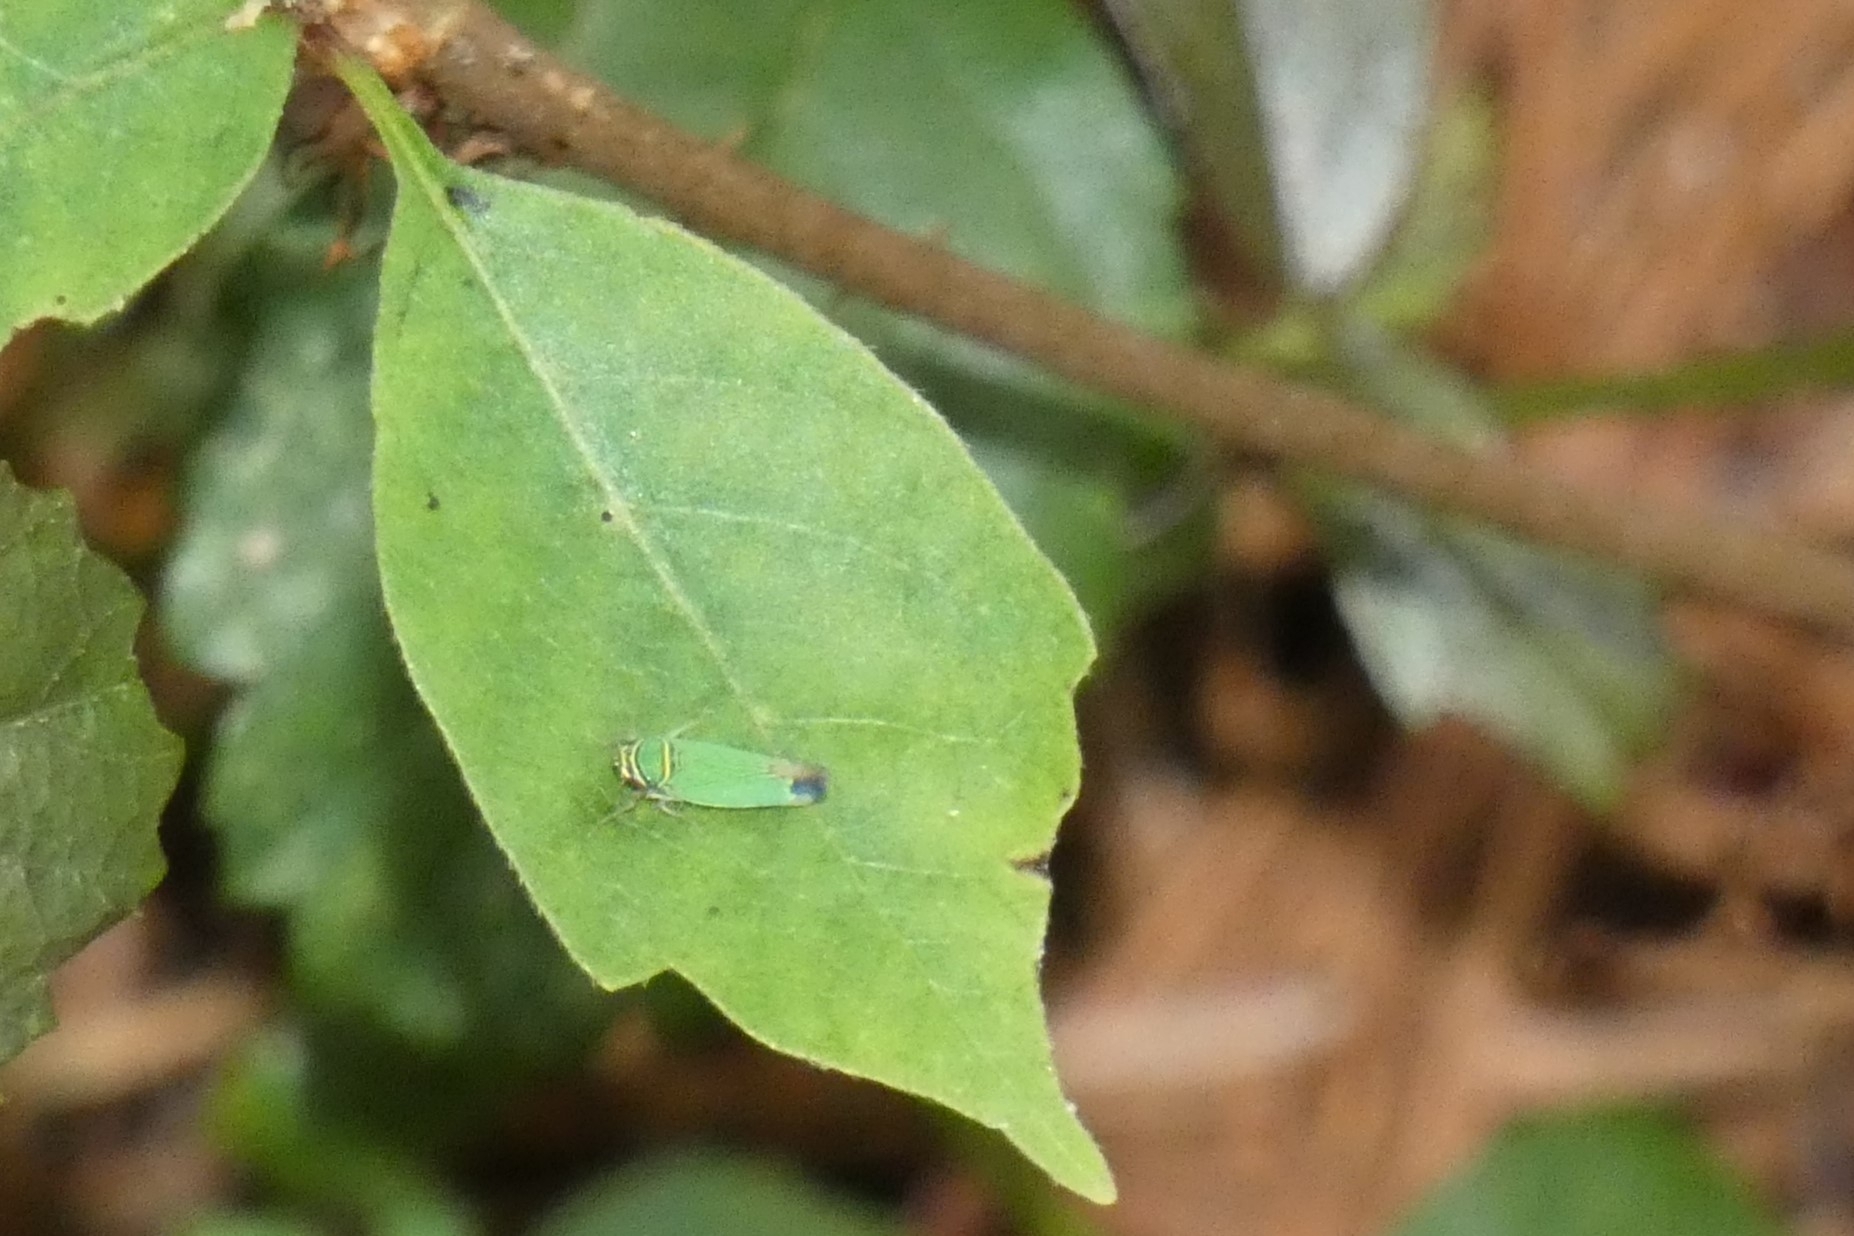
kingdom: Animalia
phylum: Arthropoda
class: Insecta
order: Hemiptera
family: Cicadellidae
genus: Tylozygus
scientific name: Tylozygus geometricus
